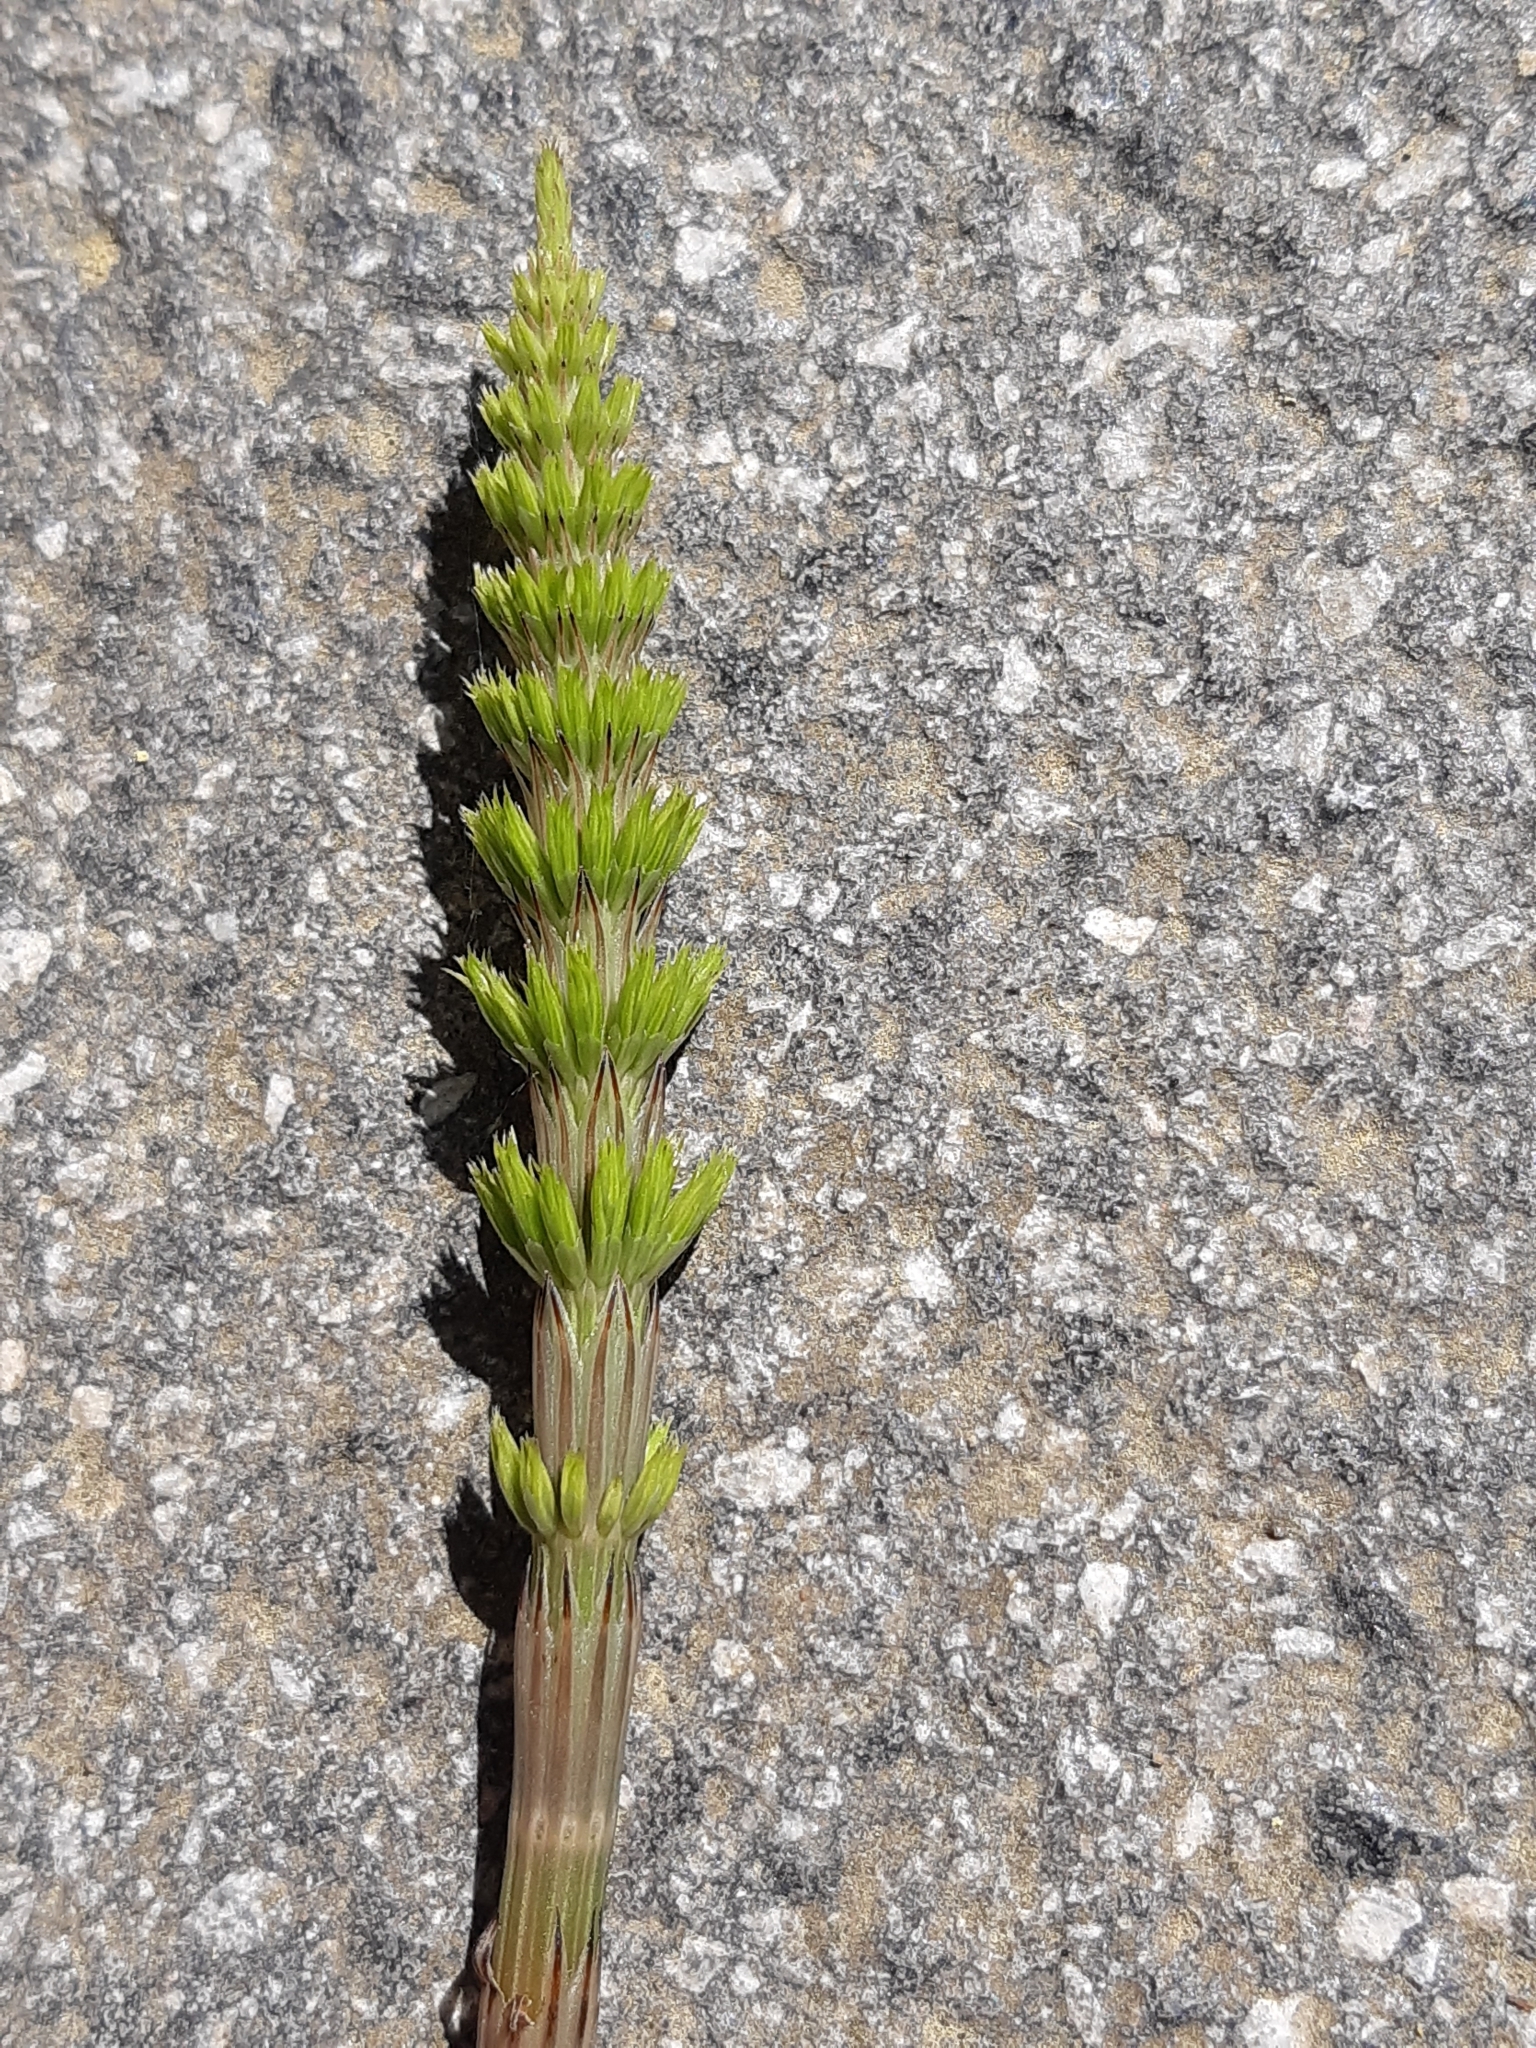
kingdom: Plantae
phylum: Tracheophyta
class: Polypodiopsida
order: Equisetales
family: Equisetaceae
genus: Equisetum
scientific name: Equisetum arvense
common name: Field horsetail
